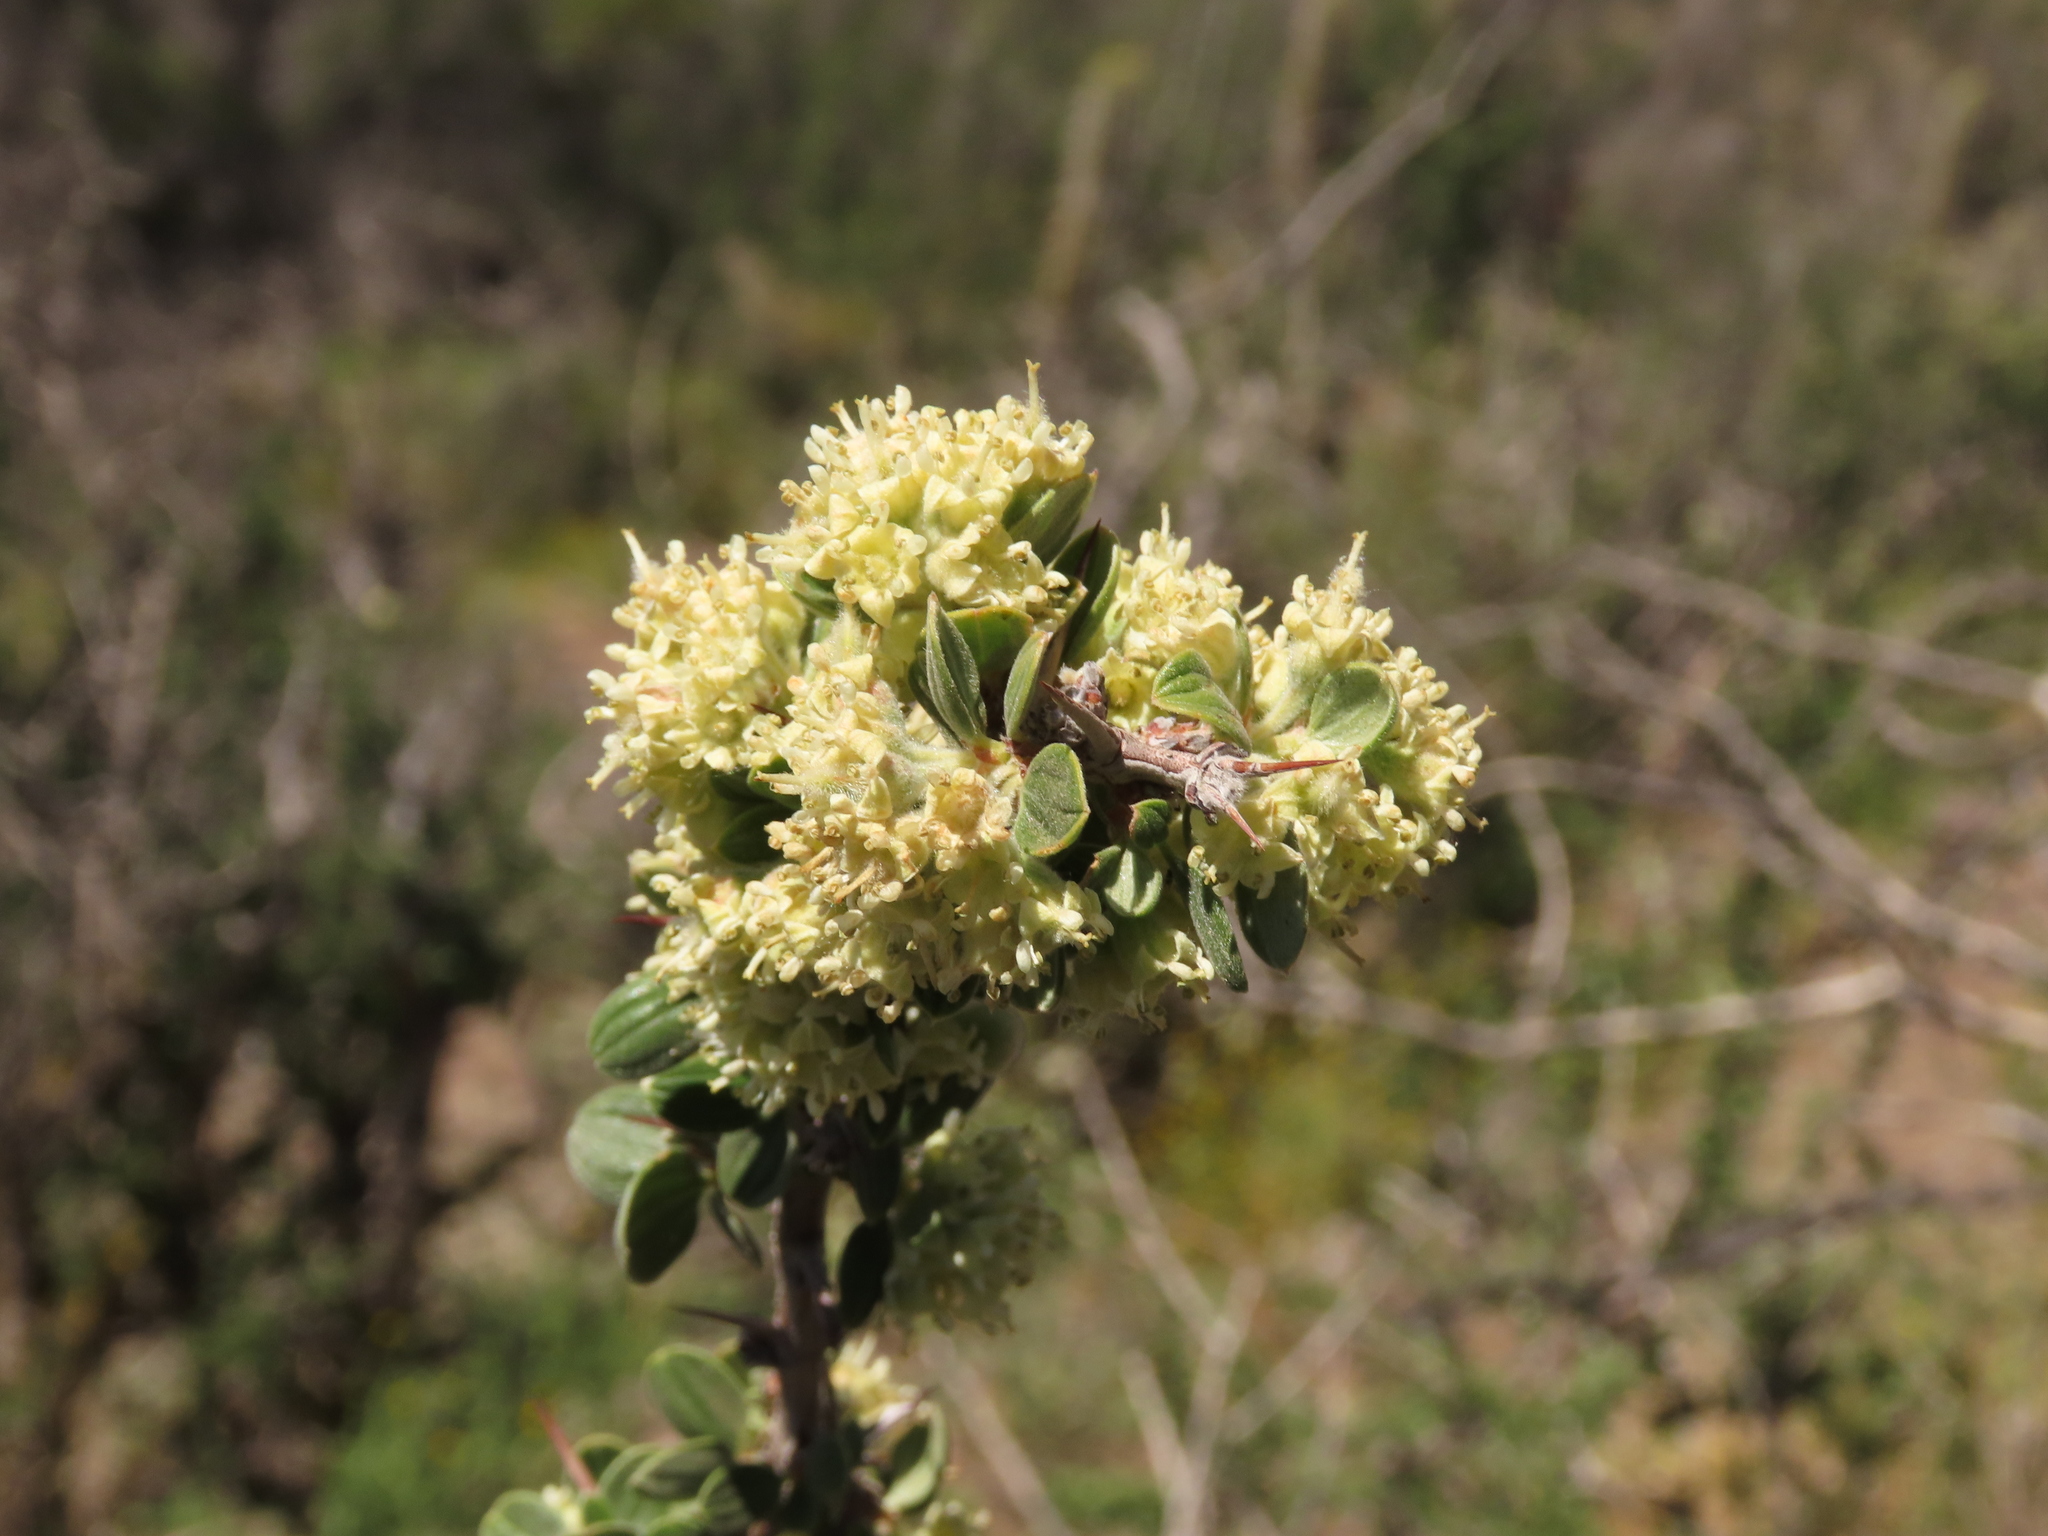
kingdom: Plantae
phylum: Tracheophyta
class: Magnoliopsida
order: Rosales
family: Rhamnaceae
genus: Trevoa
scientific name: Trevoa quinquenervia
